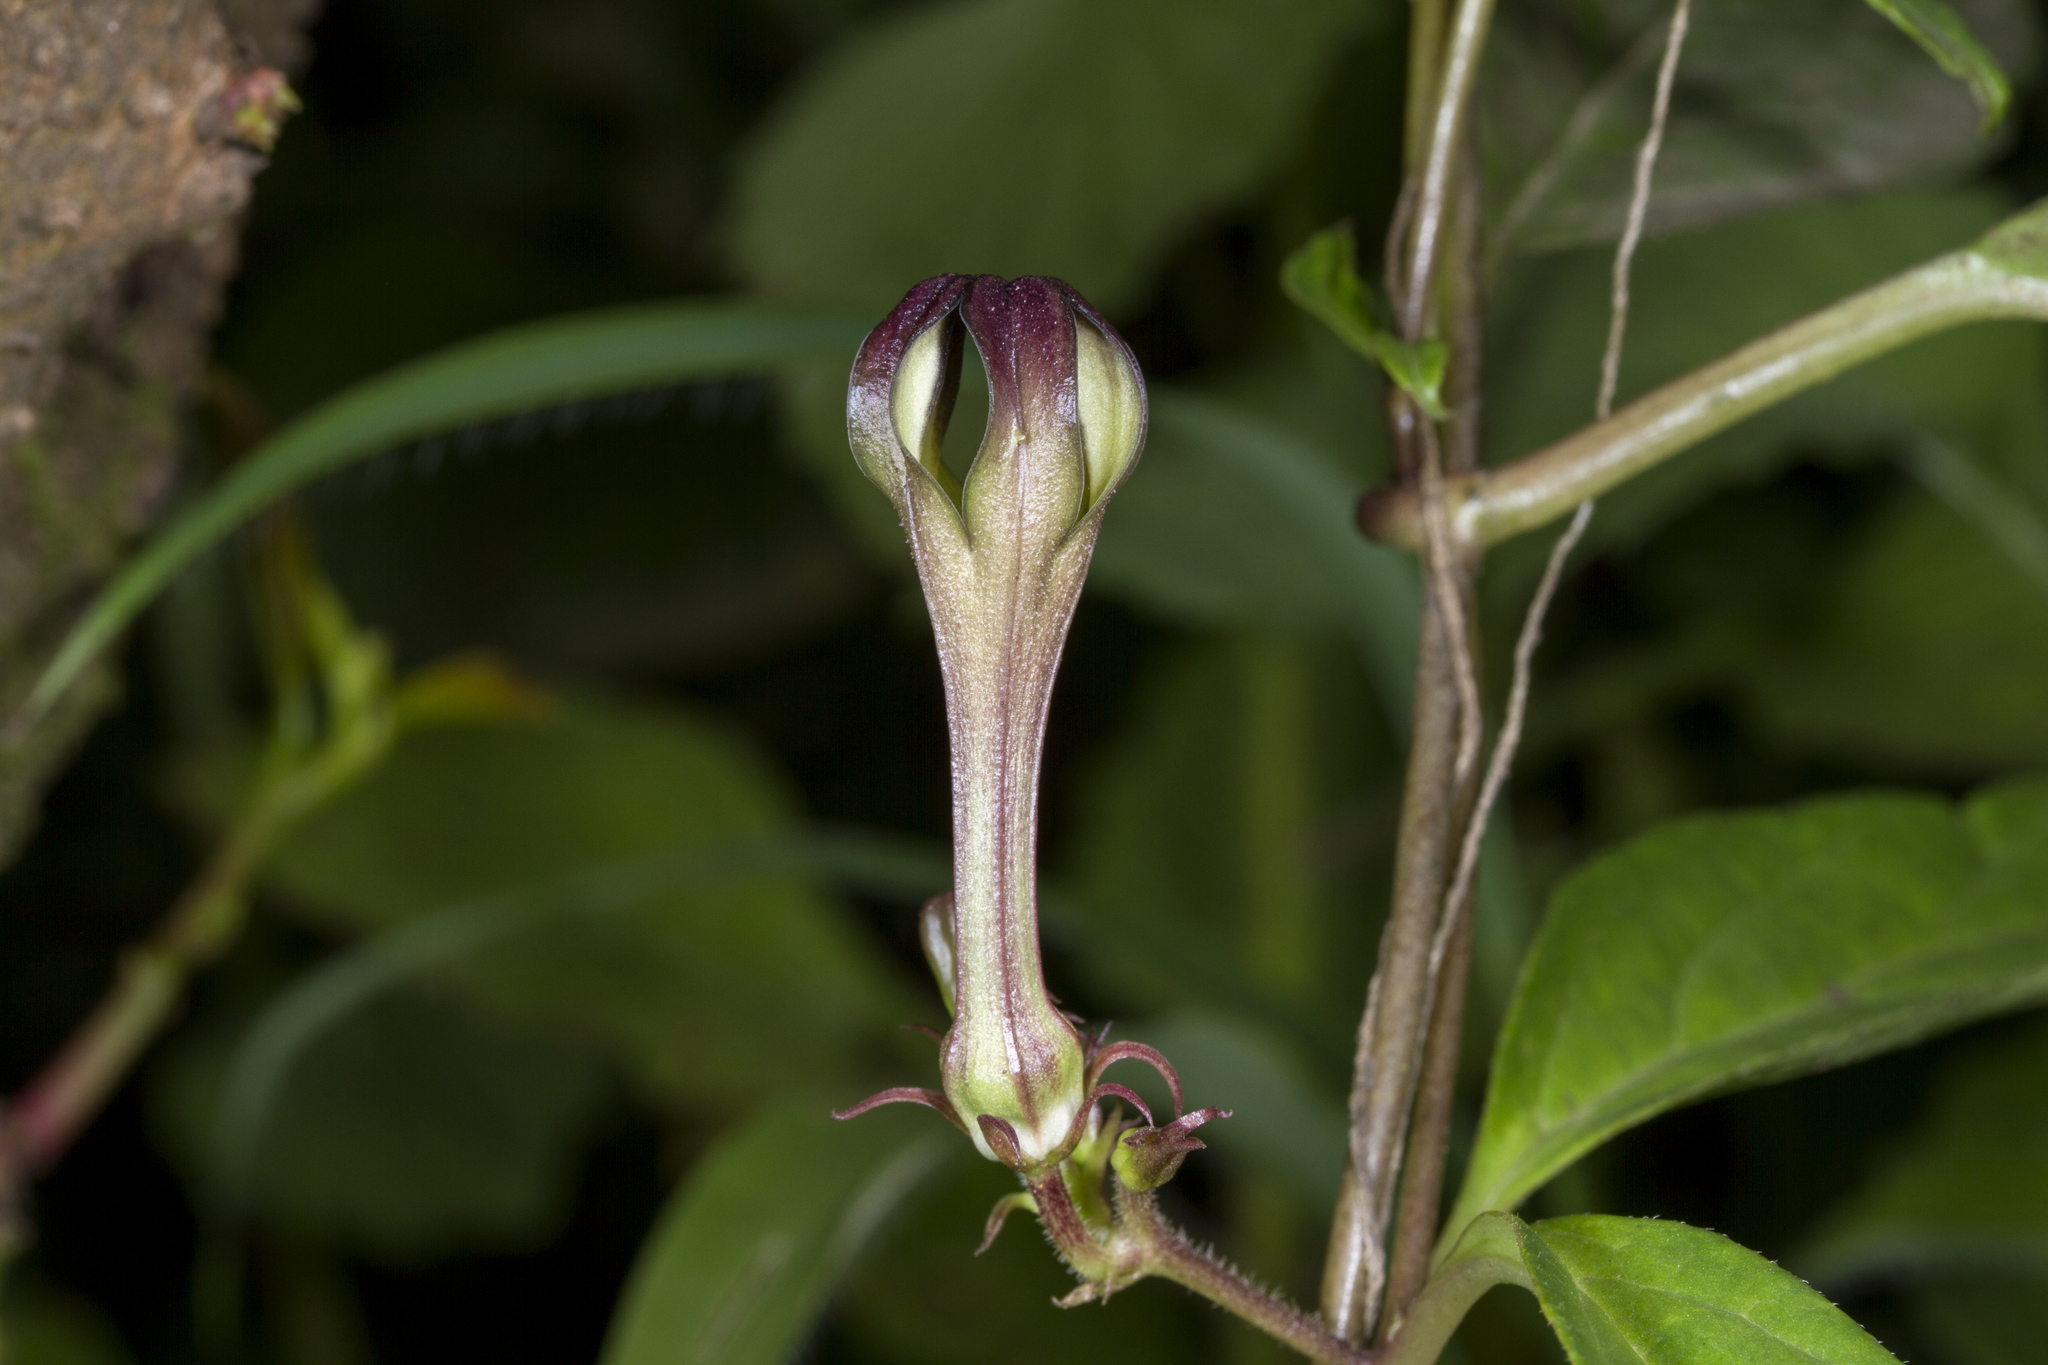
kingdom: Plantae
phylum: Tracheophyta
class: Magnoliopsida
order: Gentianales
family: Apocynaceae
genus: Ceropegia
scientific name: Ceropegia media
